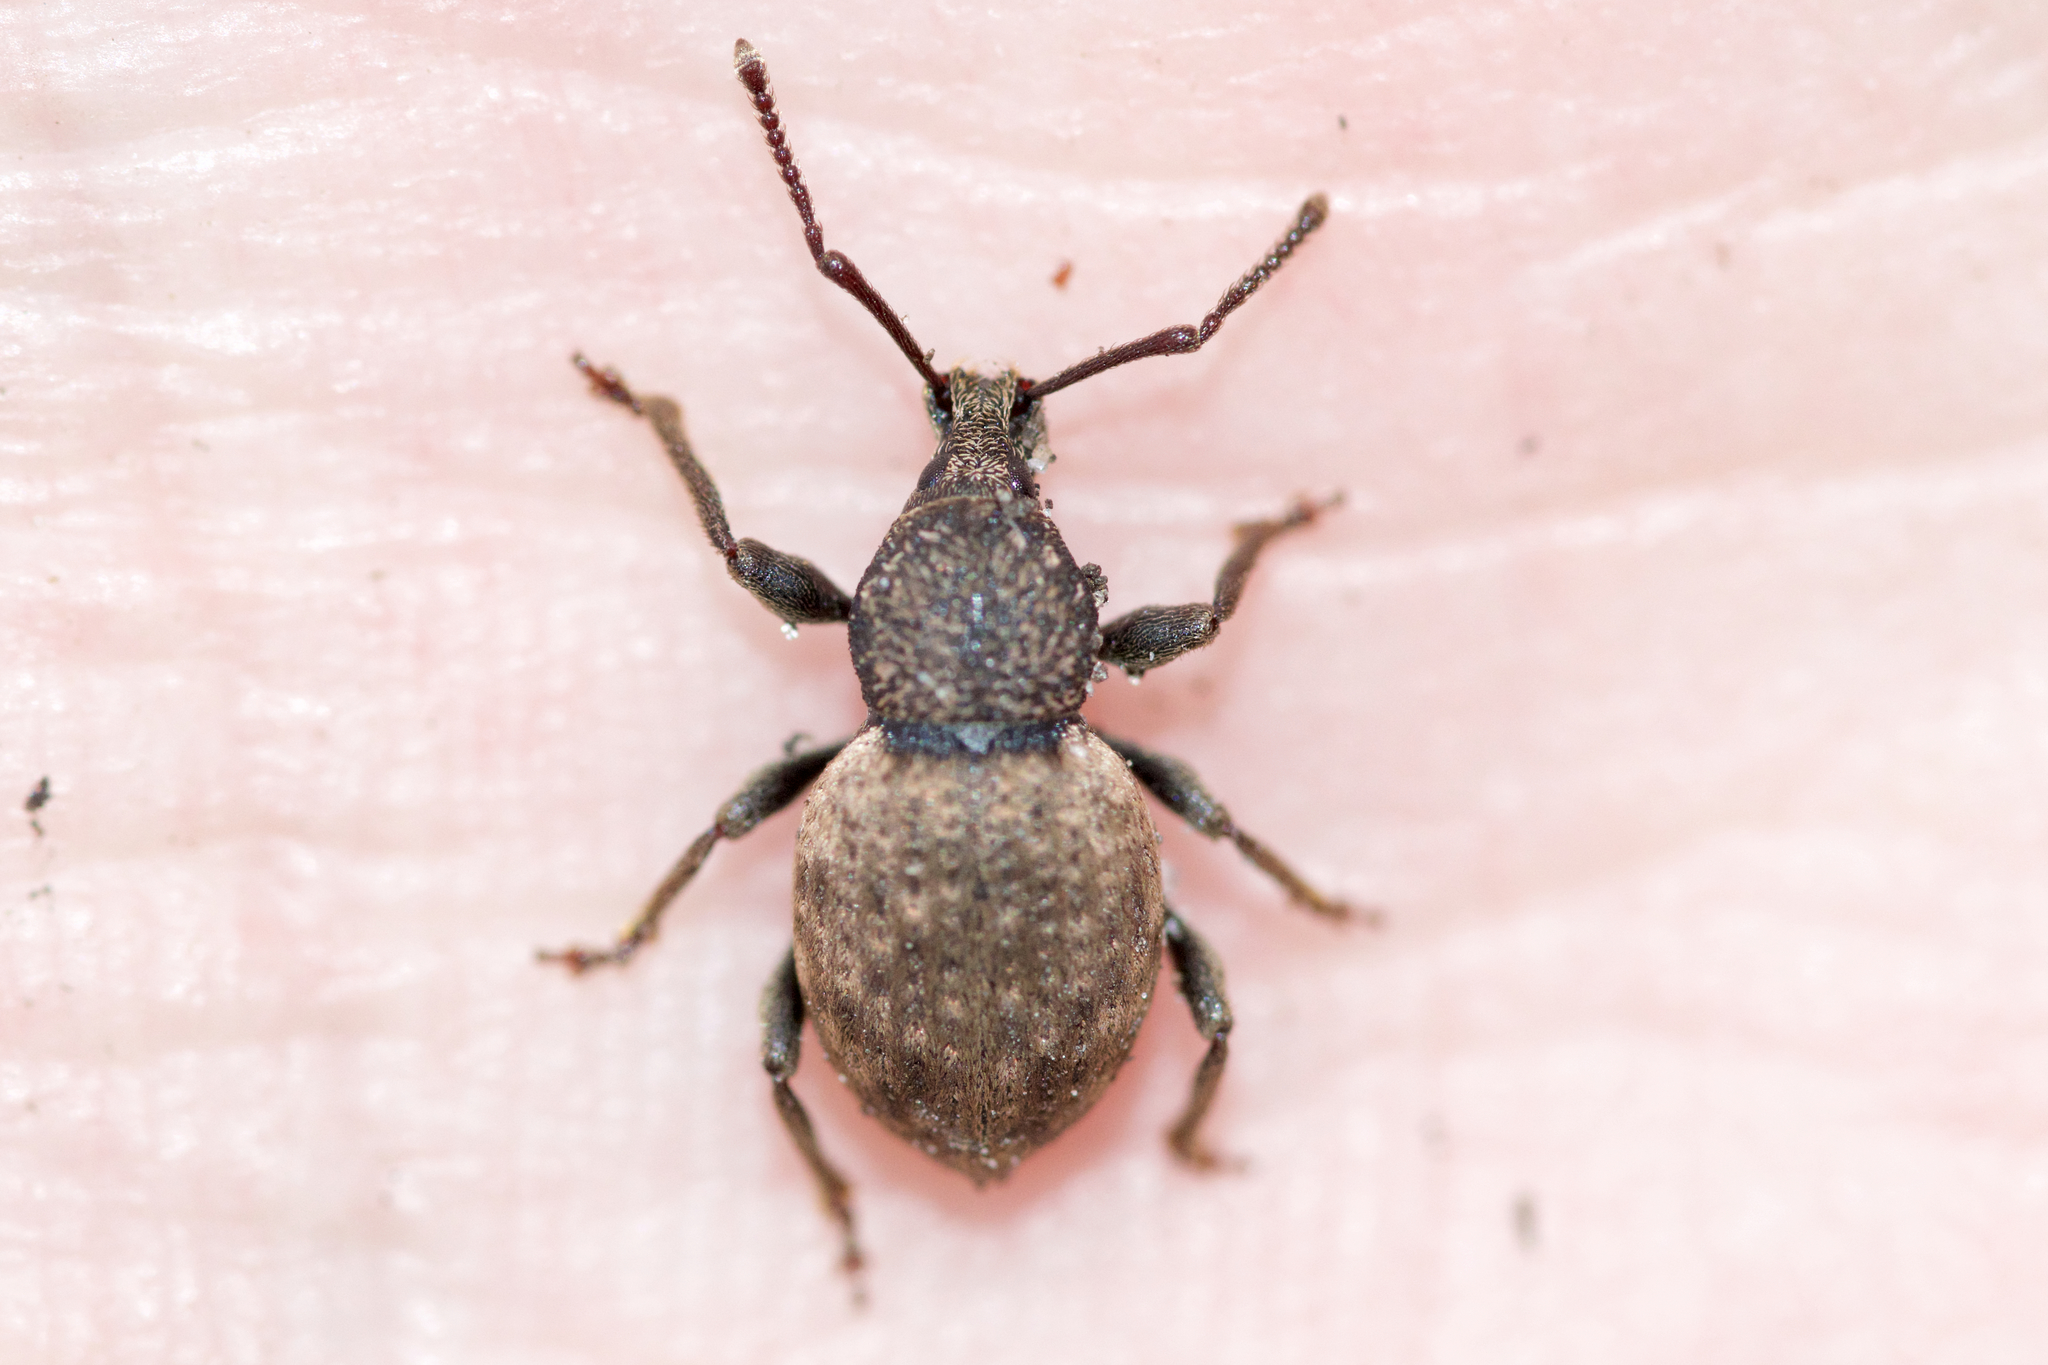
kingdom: Animalia
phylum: Arthropoda
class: Insecta
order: Coleoptera
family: Curculionidae
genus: Otiorhynchus
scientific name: Otiorhynchus raucus
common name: Weevil
